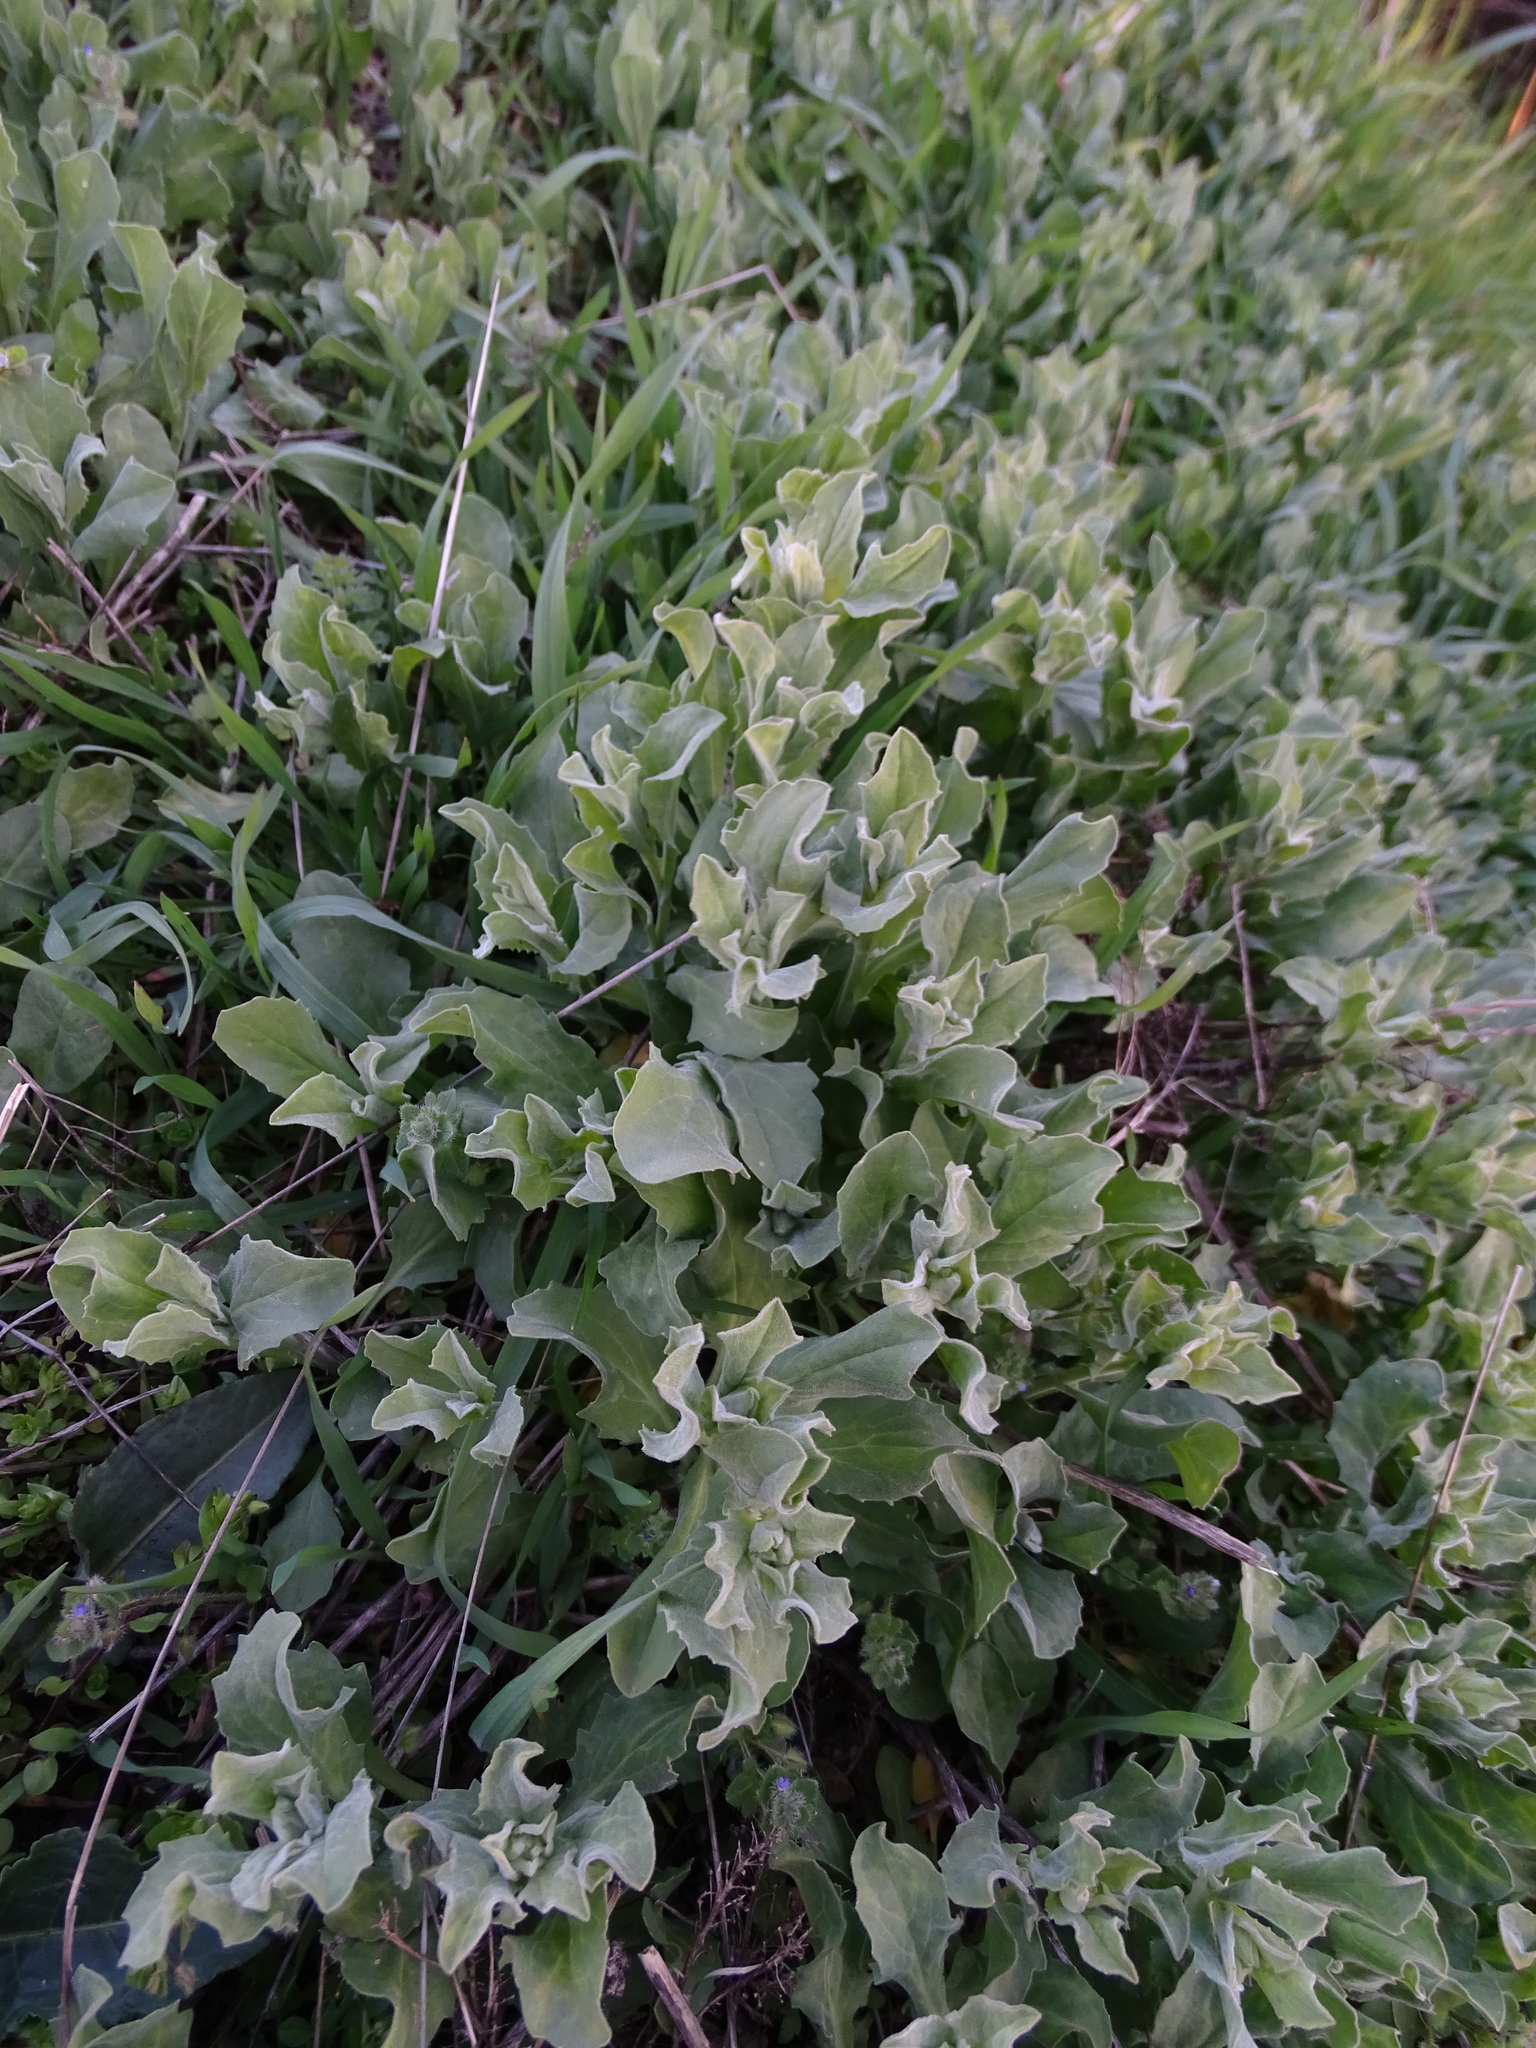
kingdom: Plantae
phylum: Tracheophyta
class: Magnoliopsida
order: Brassicales
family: Brassicaceae
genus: Lepidium
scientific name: Lepidium draba
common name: Hoary cress
